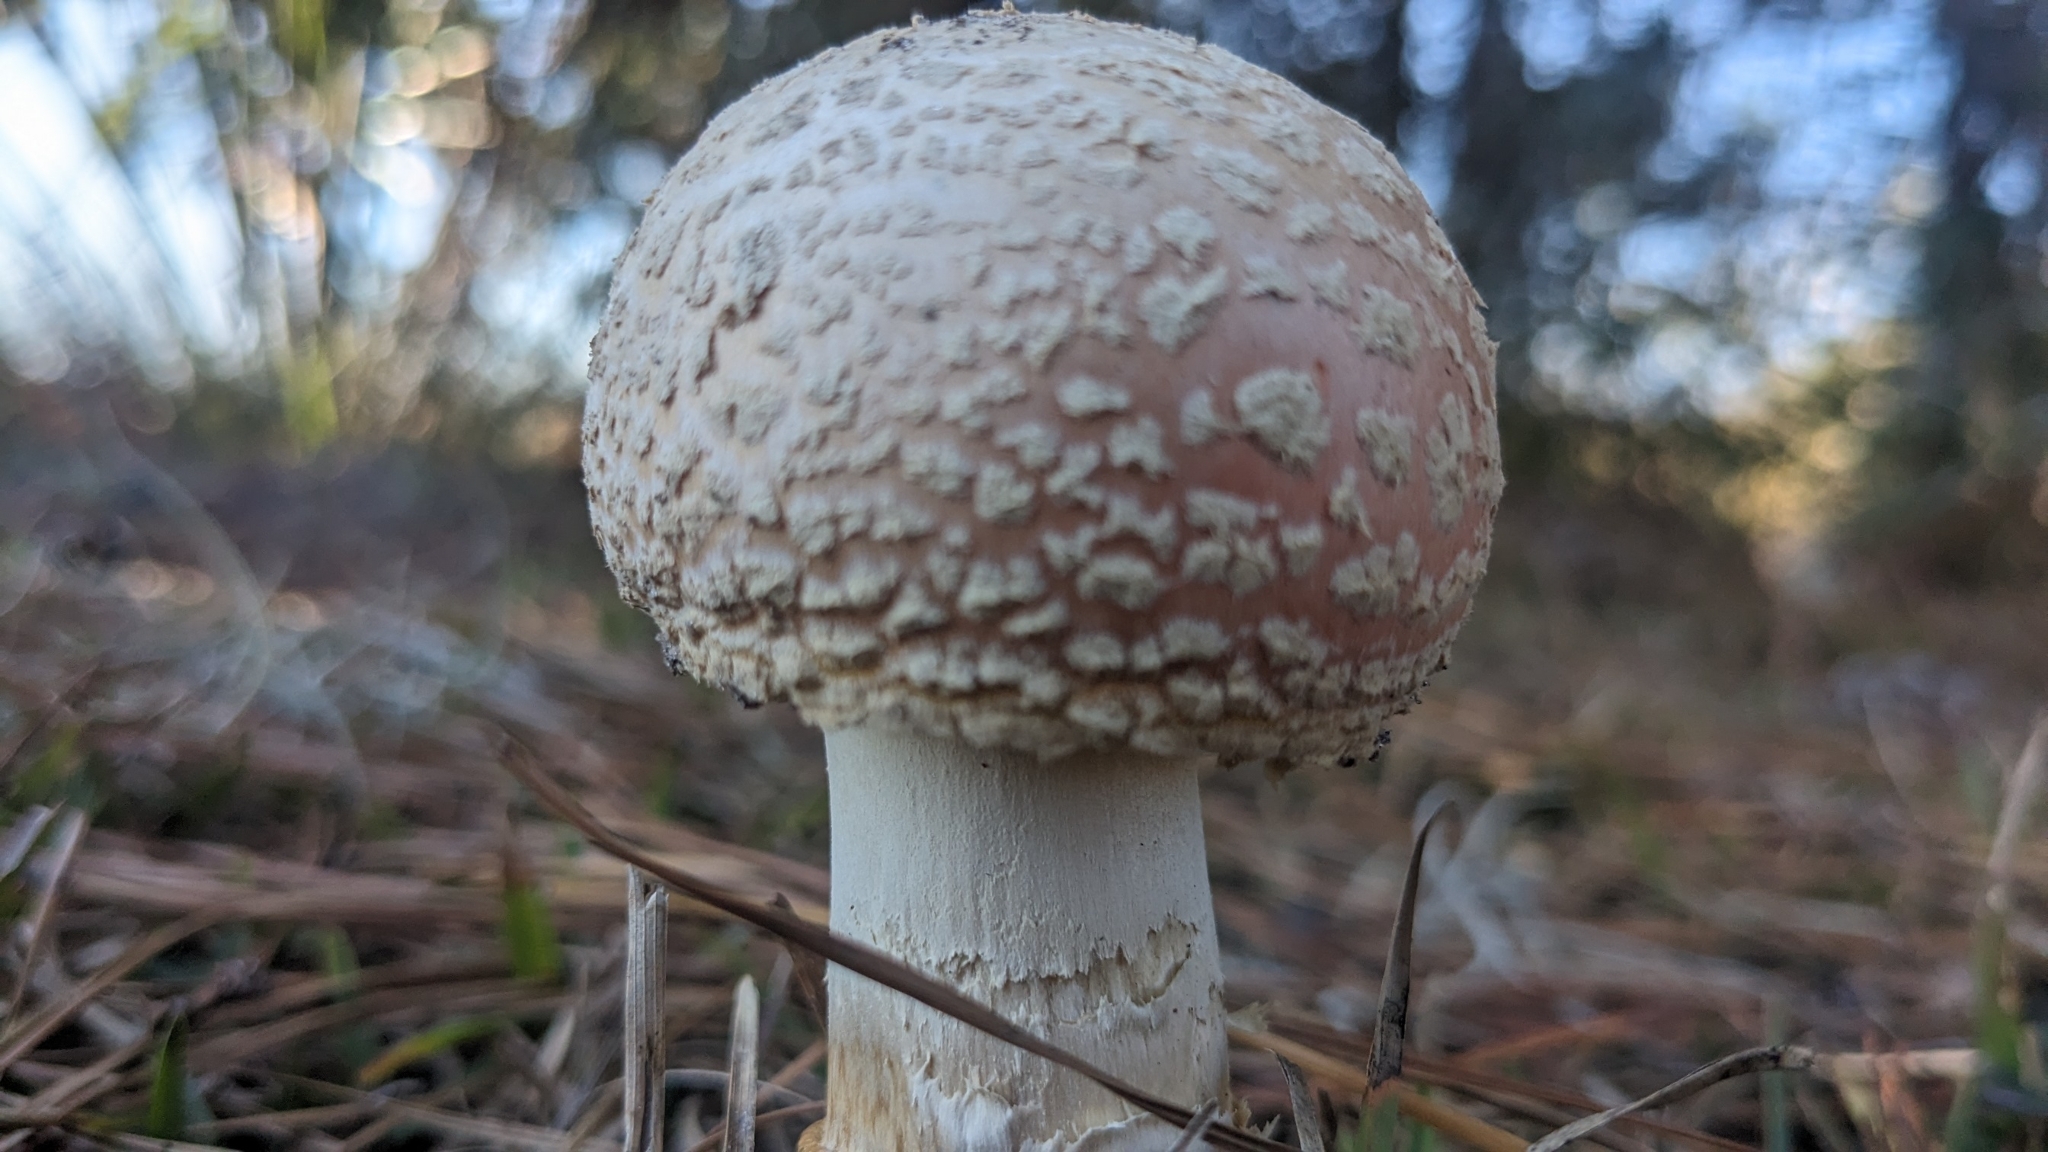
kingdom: Fungi
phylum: Basidiomycota
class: Agaricomycetes
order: Agaricales
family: Amanitaceae
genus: Amanita
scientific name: Amanita persicina
